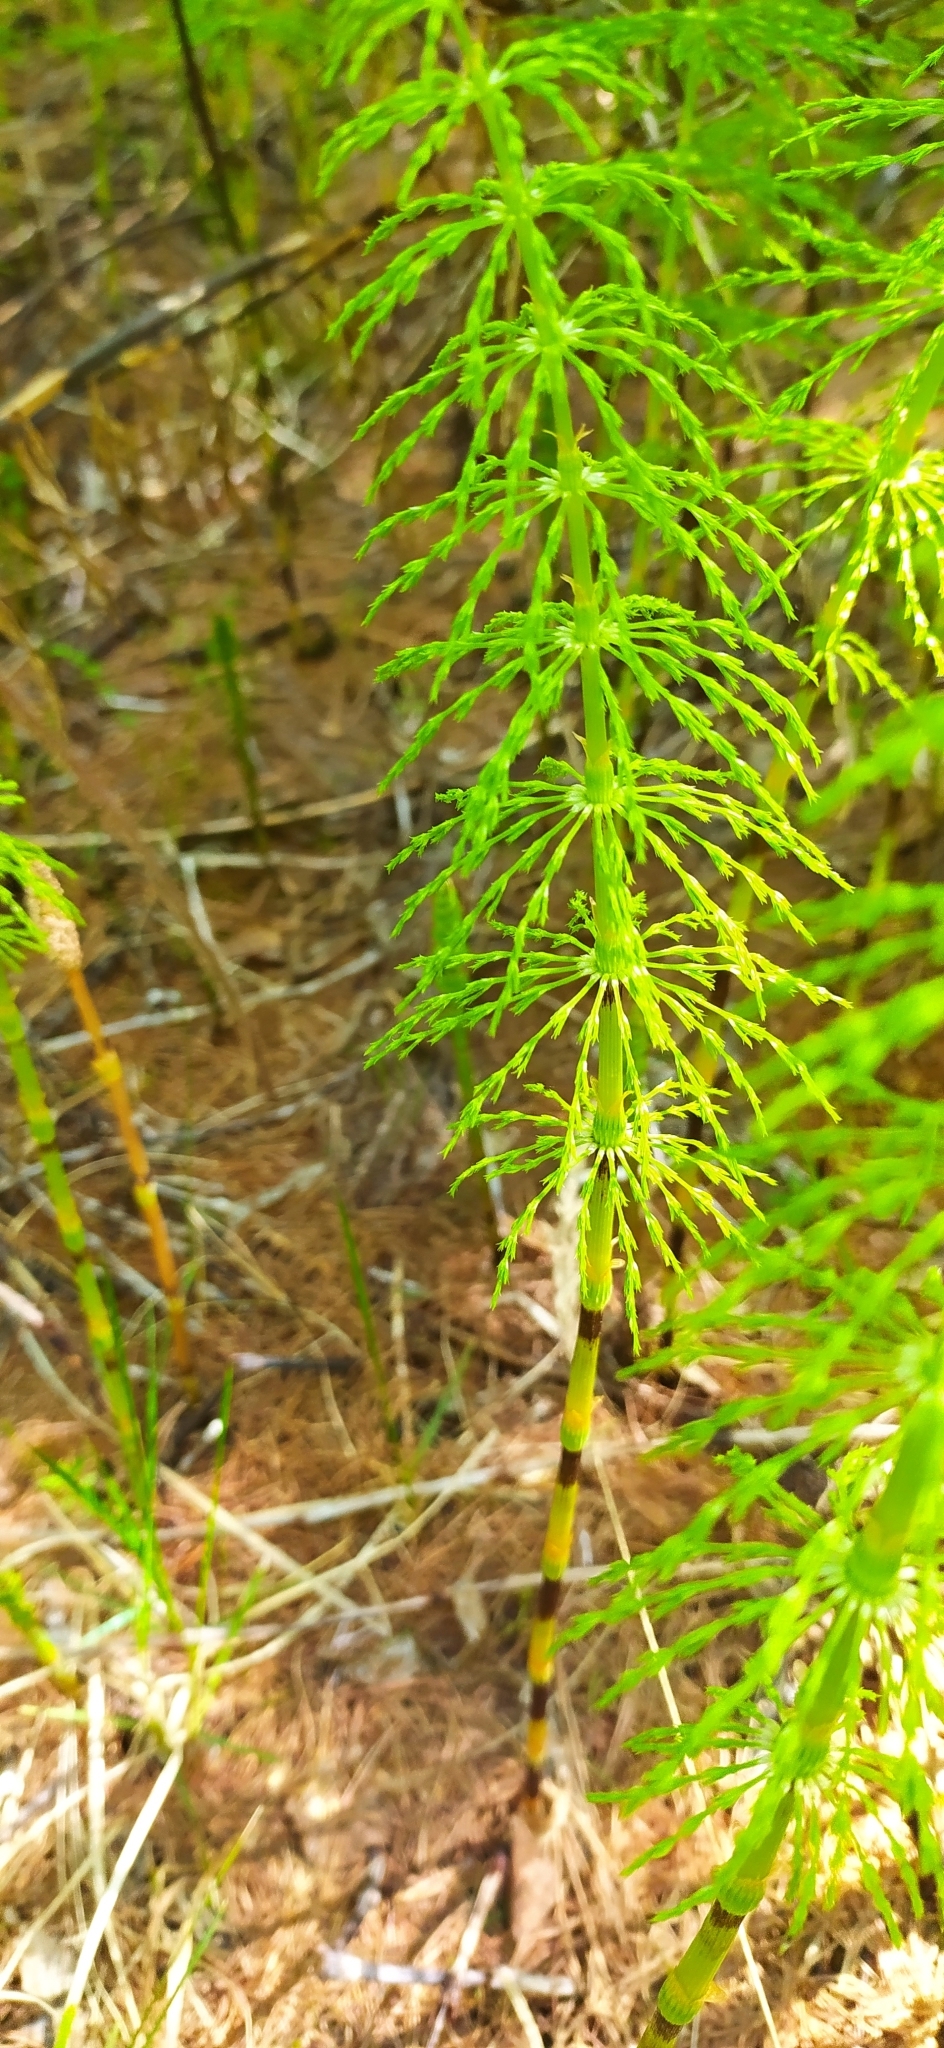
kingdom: Plantae
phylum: Tracheophyta
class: Polypodiopsida
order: Equisetales
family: Equisetaceae
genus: Equisetum
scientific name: Equisetum sylvaticum
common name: Wood horsetail
